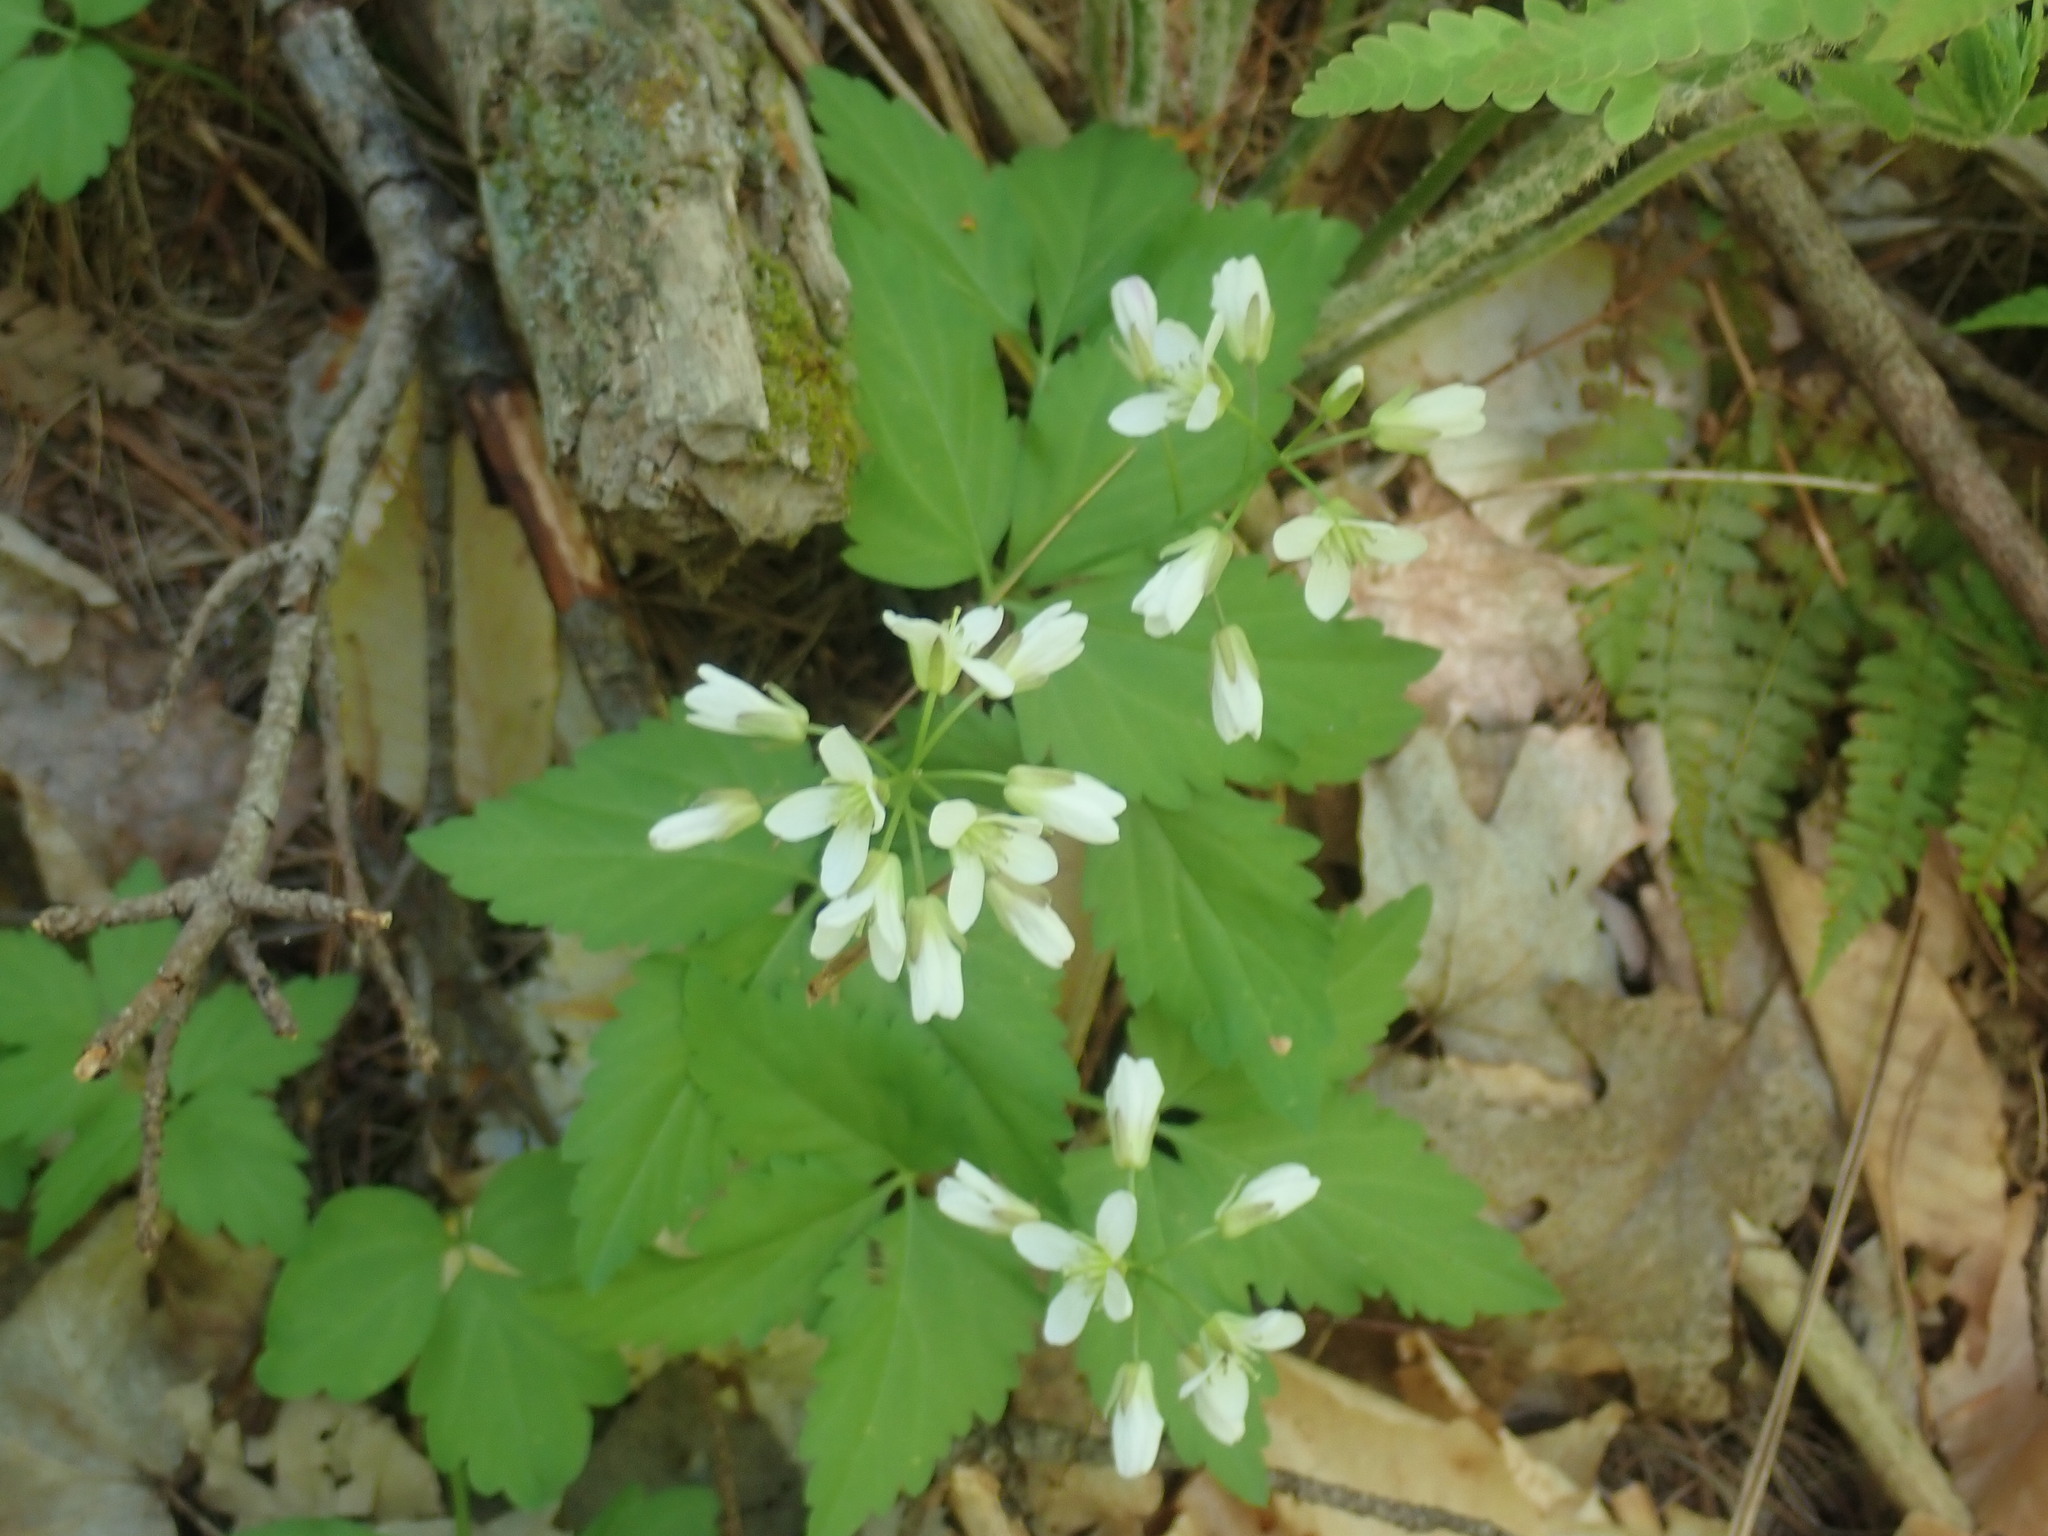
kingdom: Plantae
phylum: Tracheophyta
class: Magnoliopsida
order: Brassicales
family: Brassicaceae
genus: Cardamine
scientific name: Cardamine diphylla
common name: Broad-leaved toothwort
